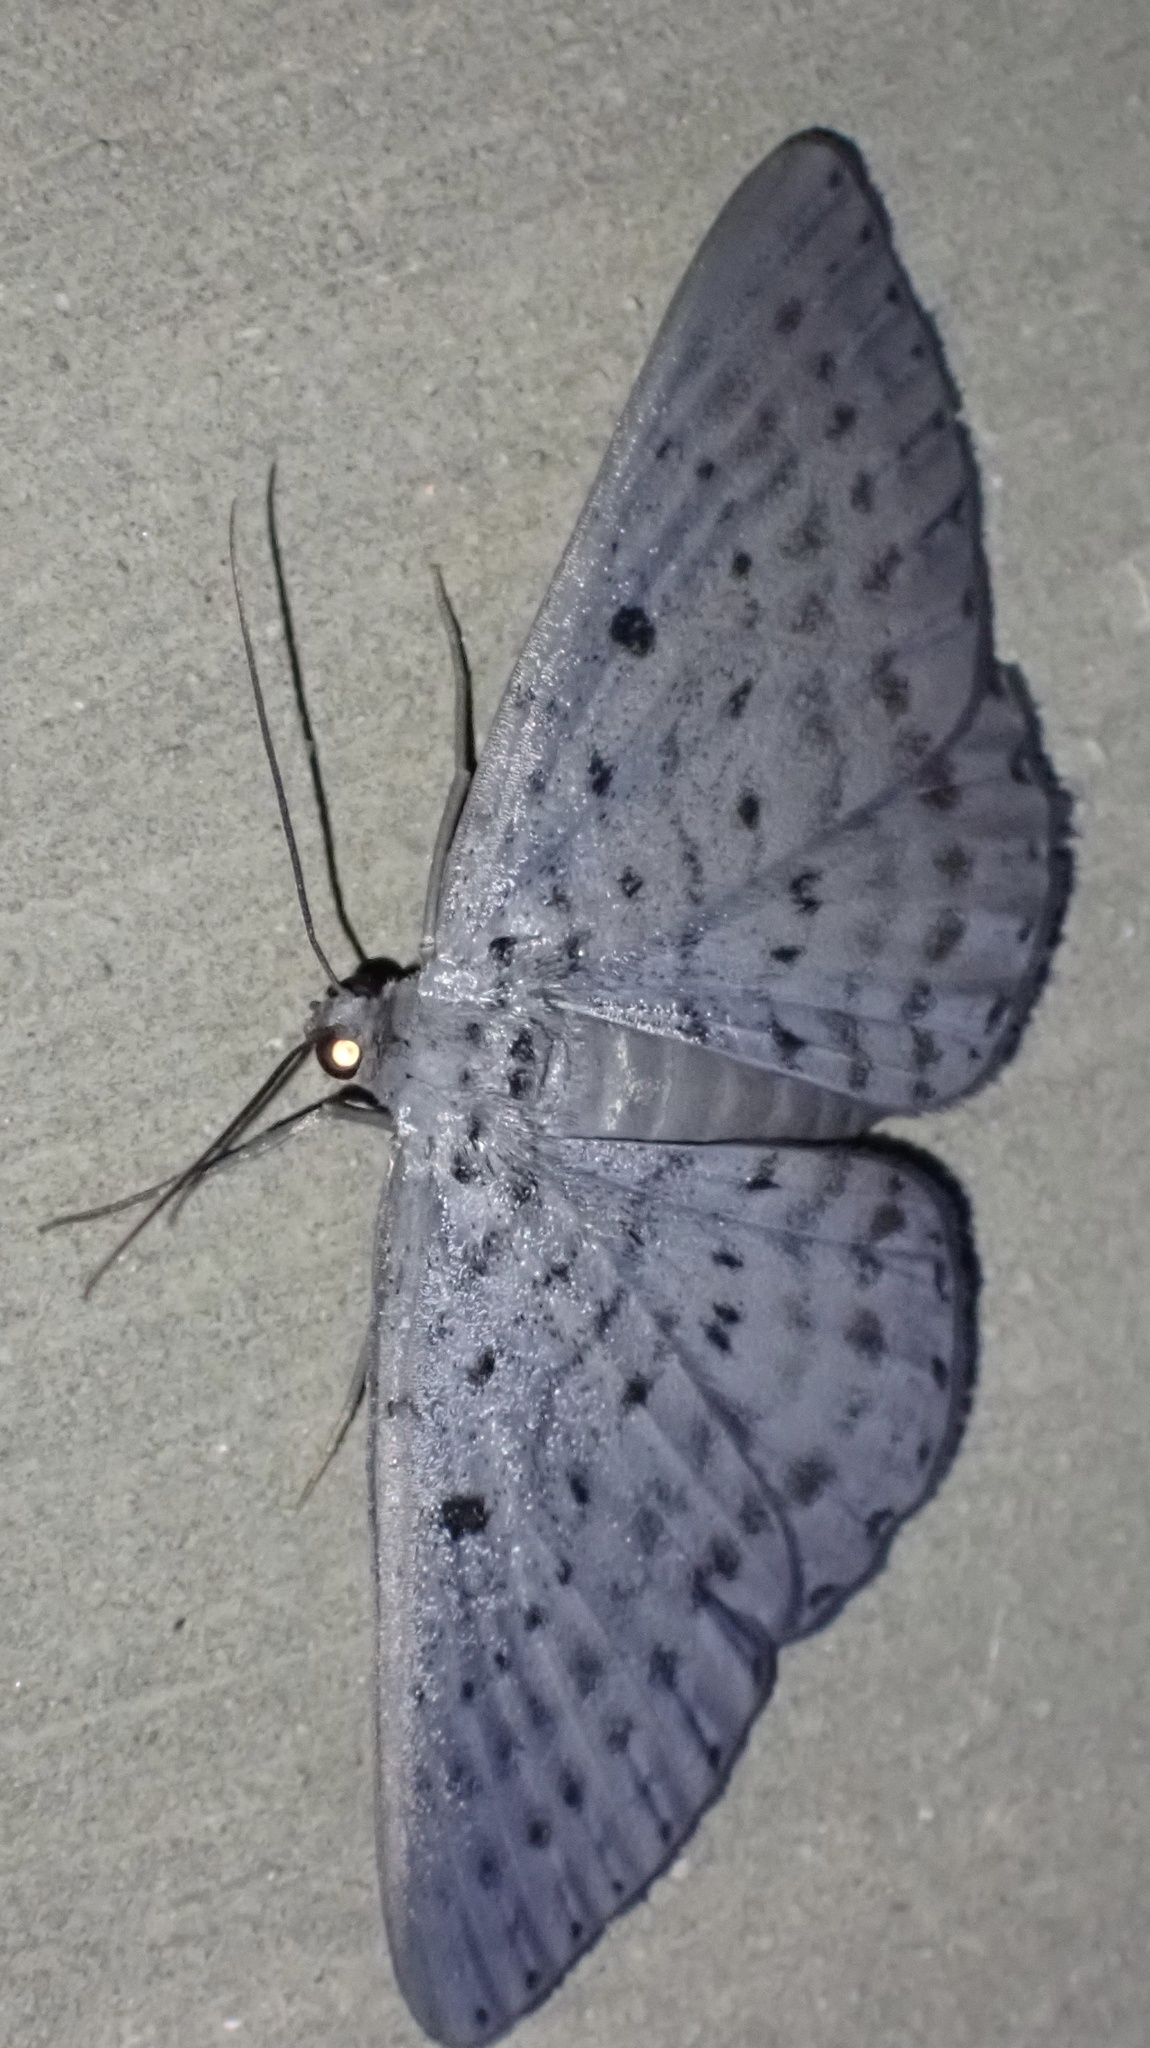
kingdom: Animalia
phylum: Arthropoda
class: Insecta
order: Lepidoptera
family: Geometridae
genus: Craspedosis
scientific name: Craspedosis alternata
